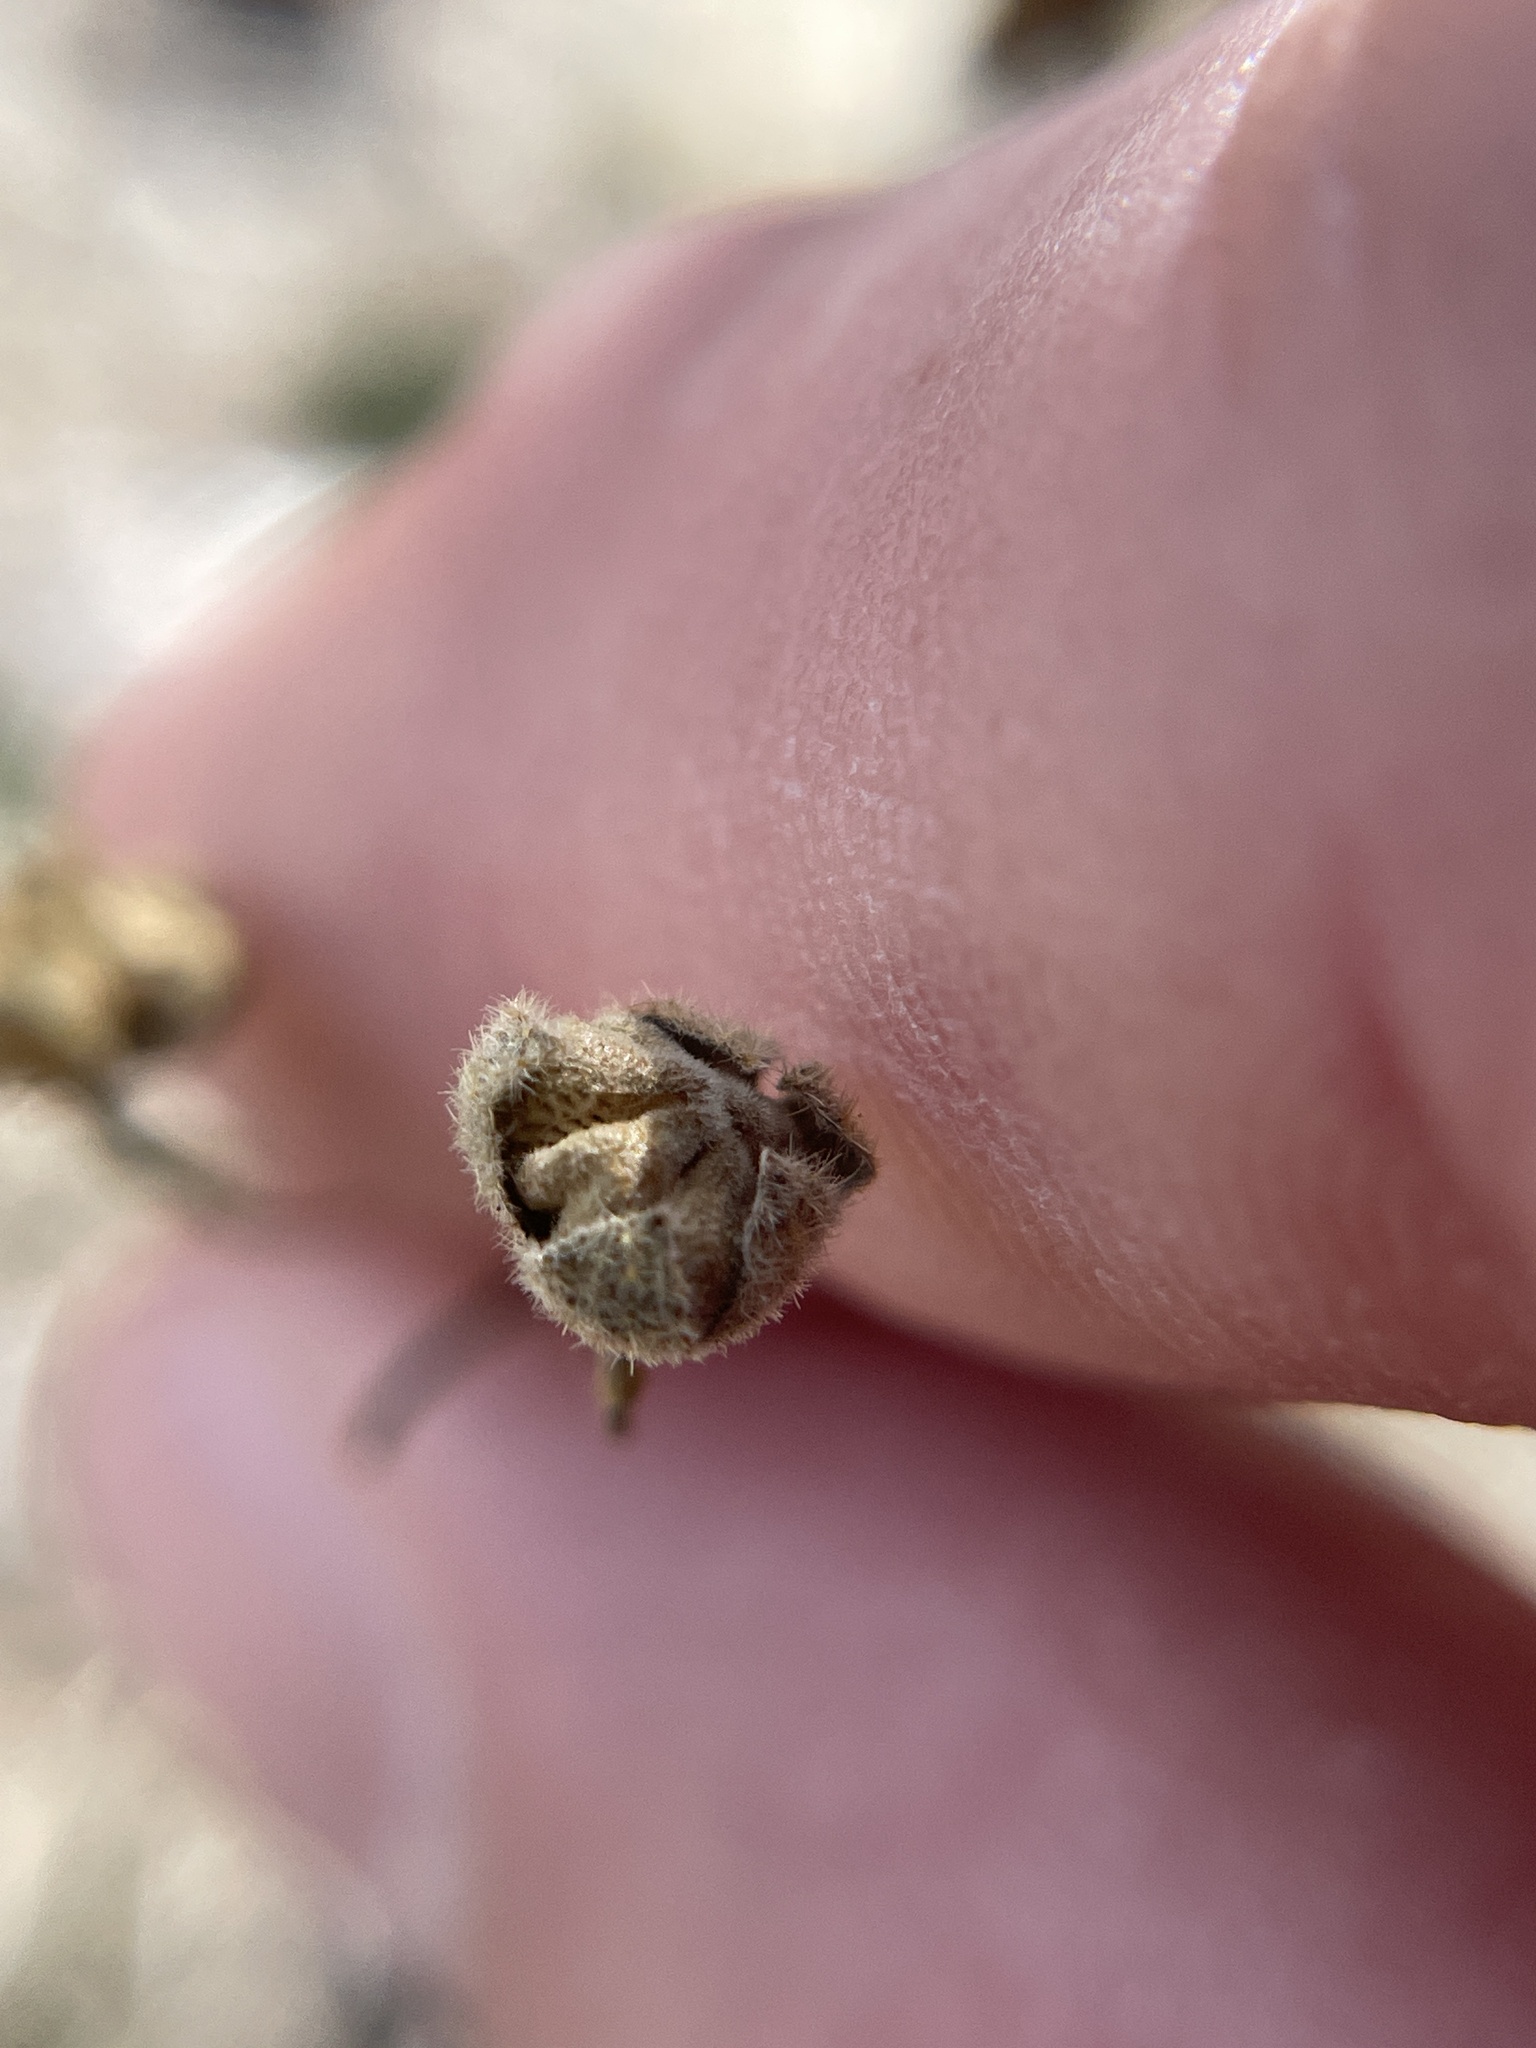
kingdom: Plantae
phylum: Tracheophyta
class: Magnoliopsida
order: Malvales
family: Malvaceae
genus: Meximalva
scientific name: Meximalva filipes
